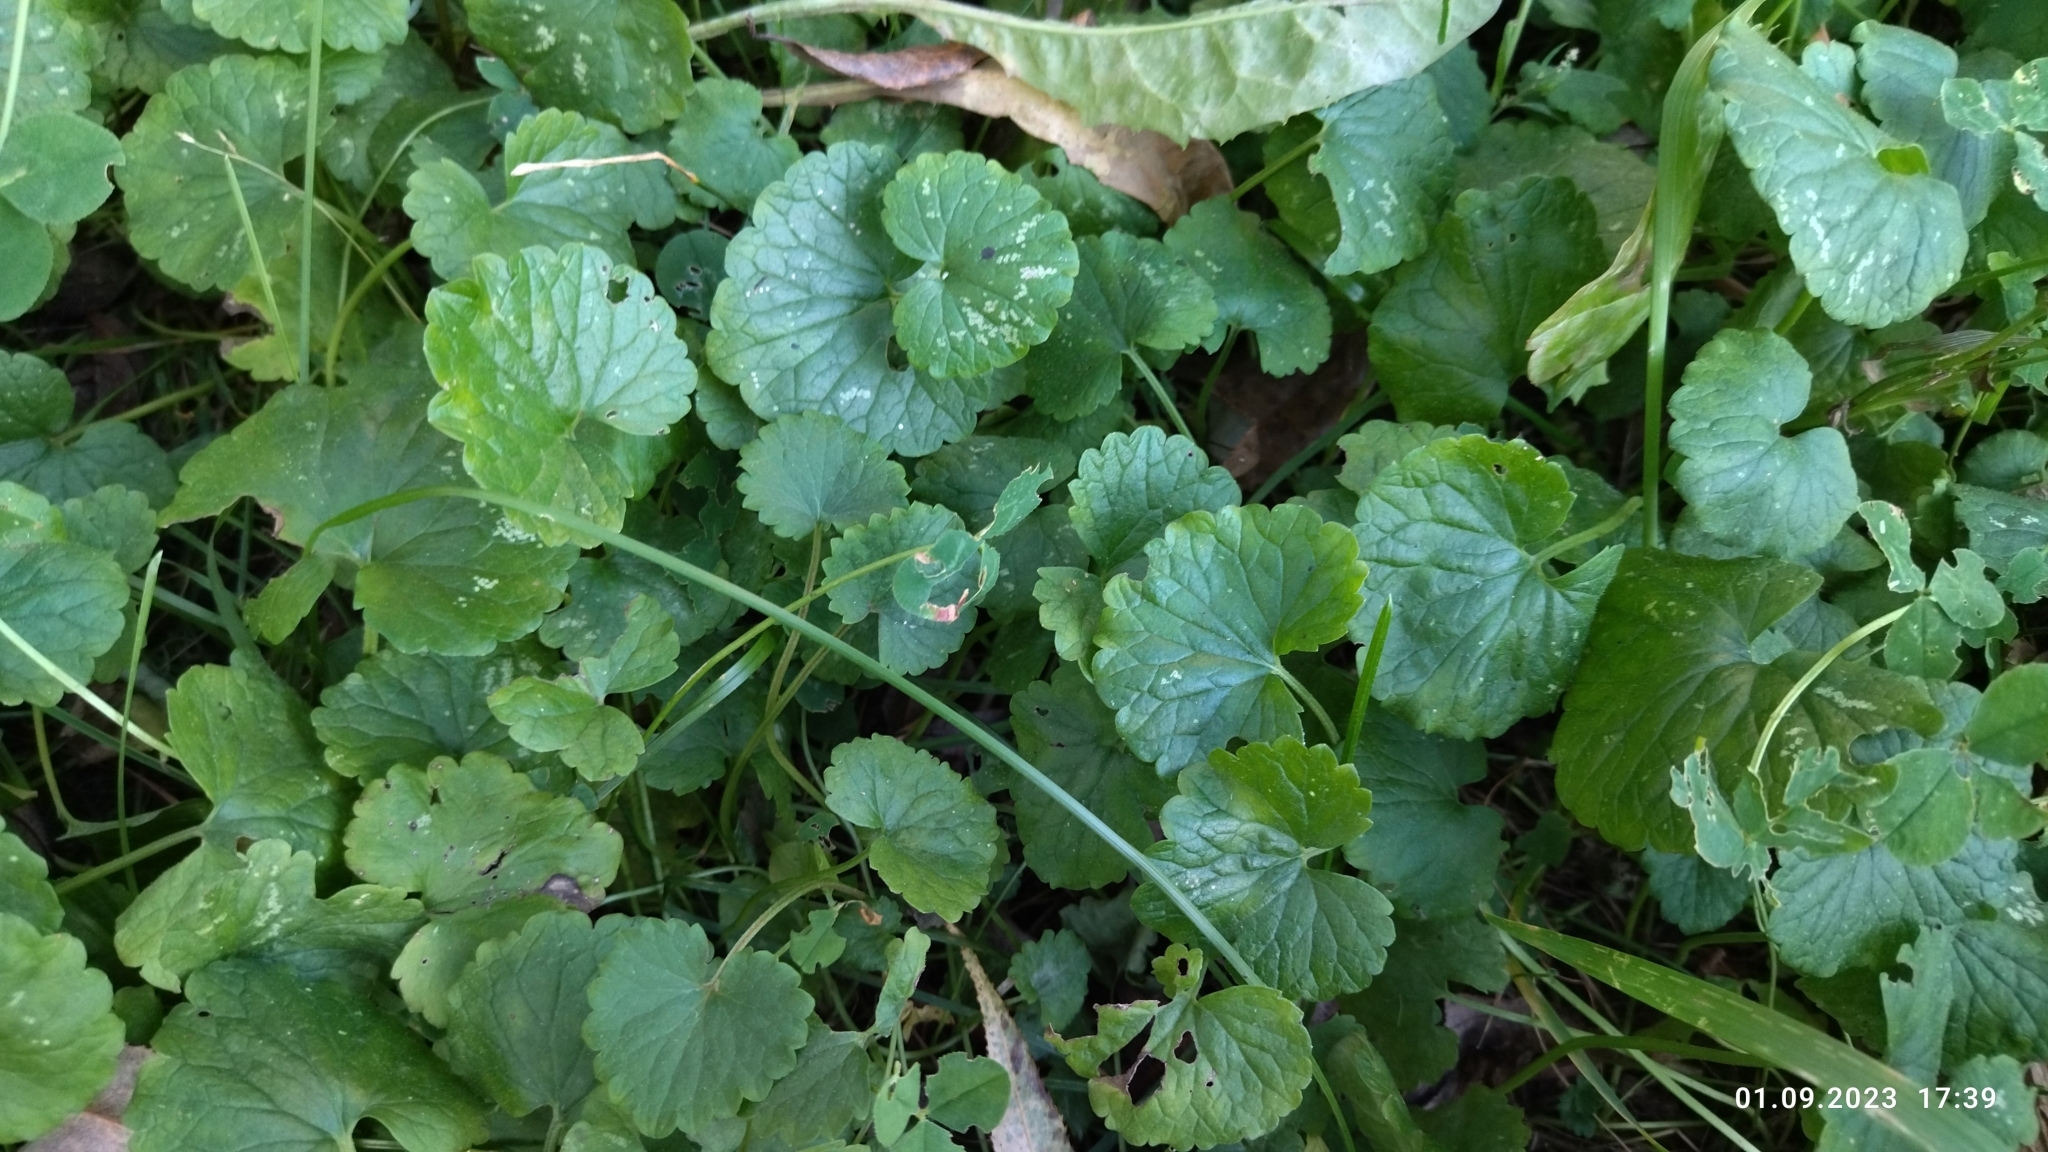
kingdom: Plantae
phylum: Tracheophyta
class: Magnoliopsida
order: Lamiales
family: Lamiaceae
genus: Glechoma
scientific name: Glechoma hederacea
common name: Ground ivy
